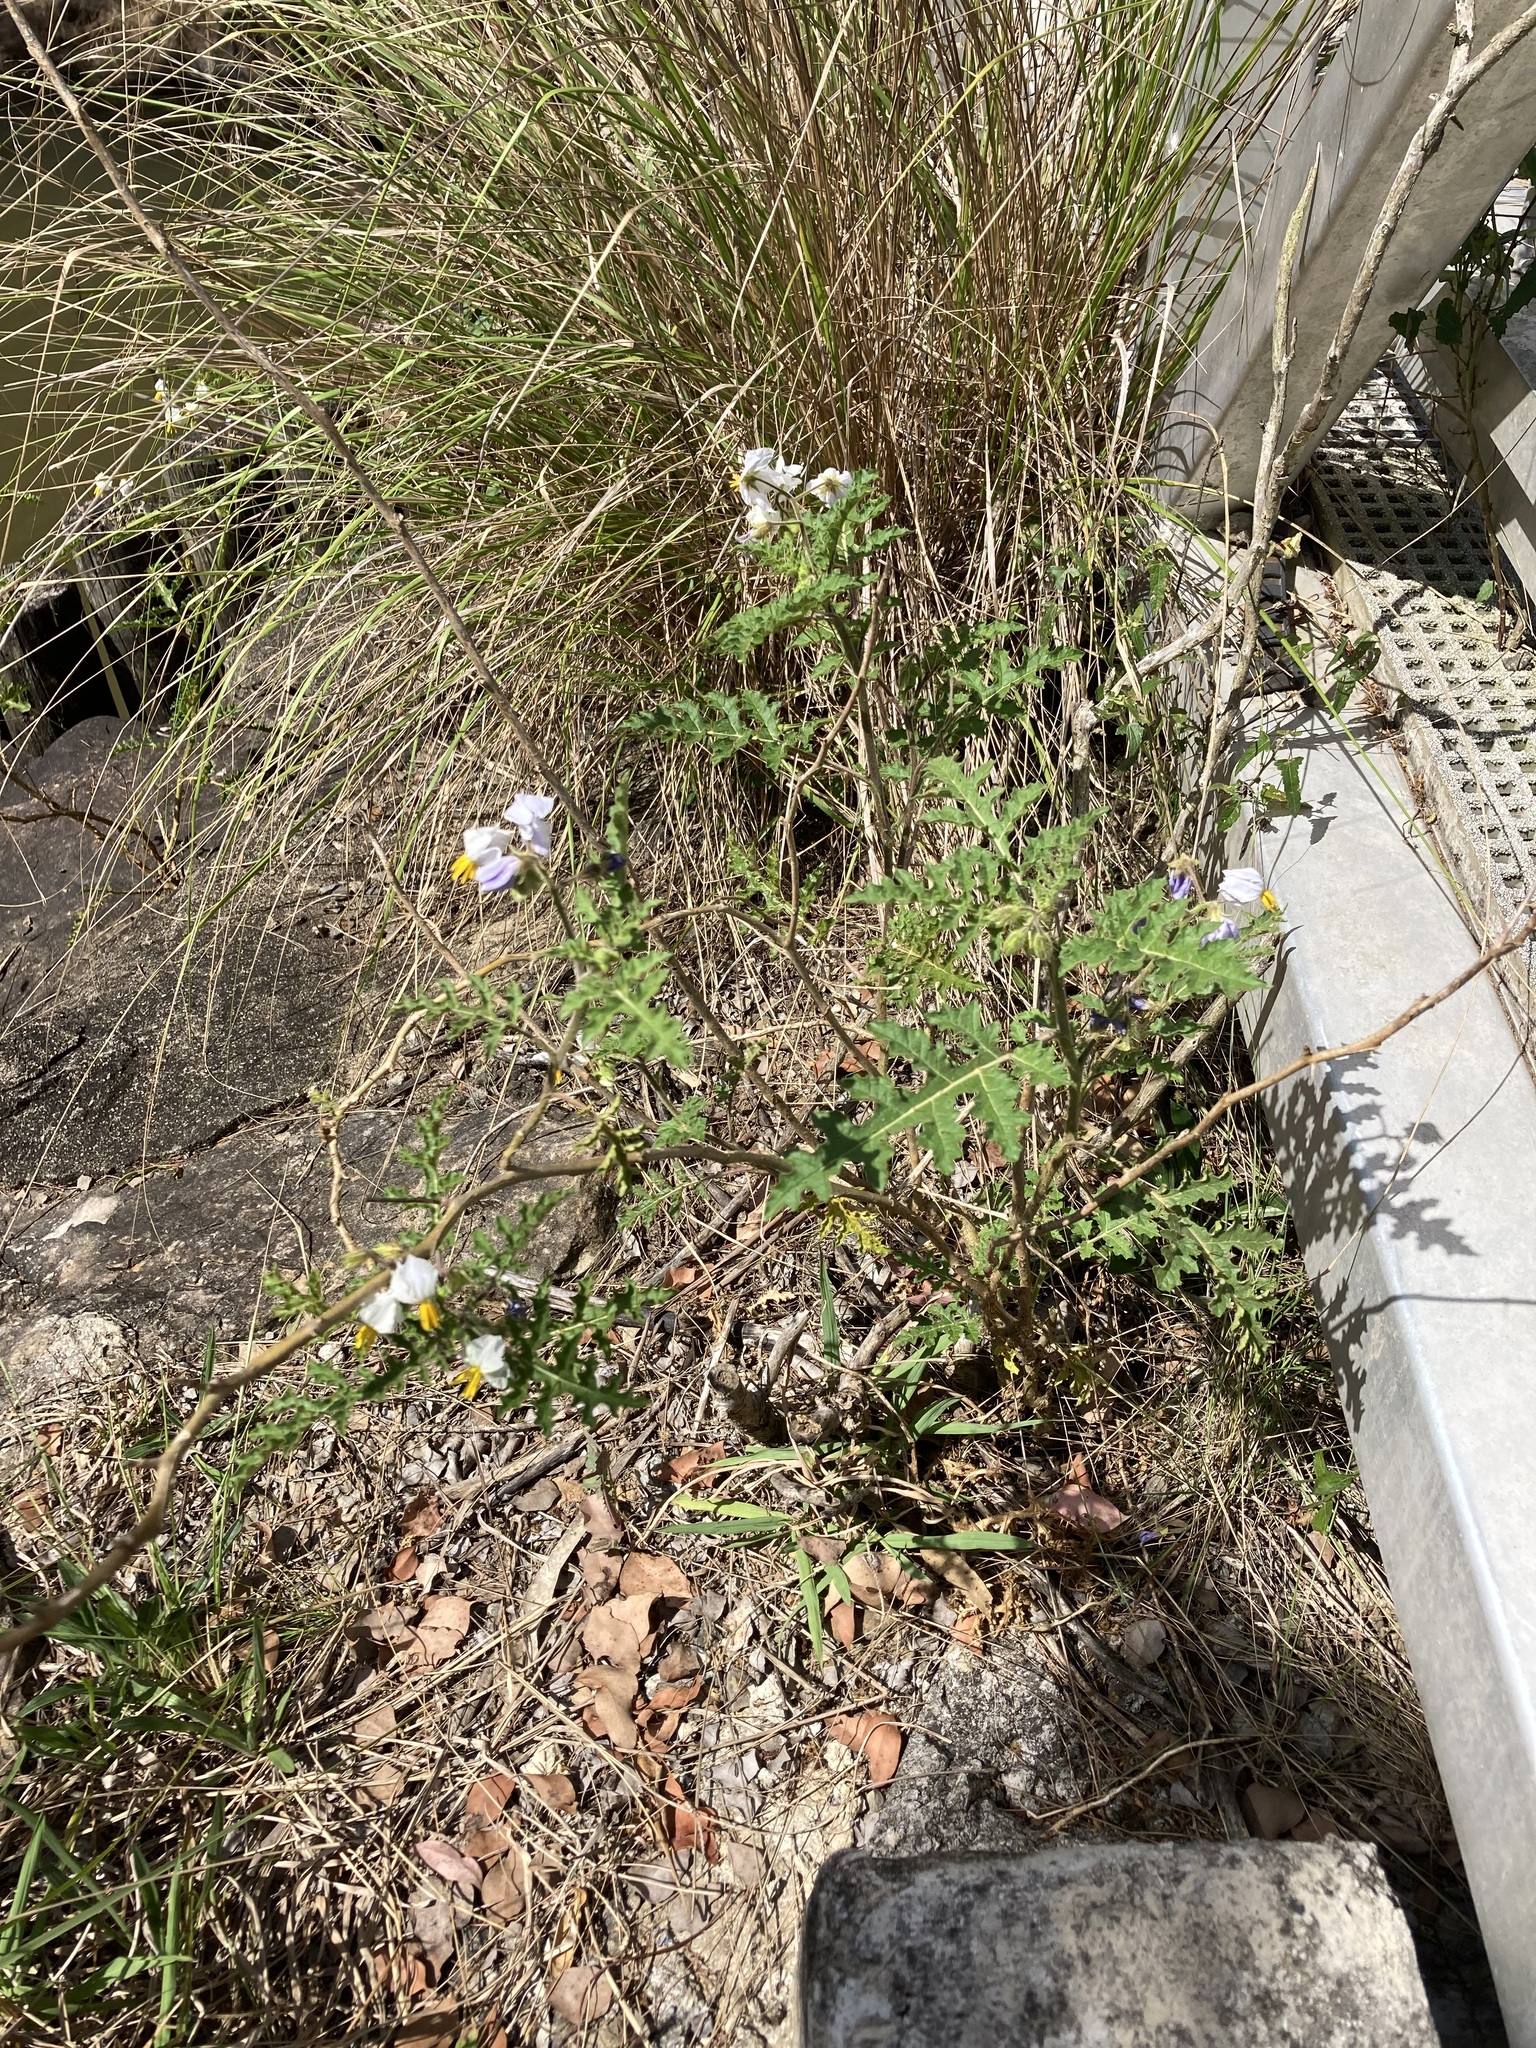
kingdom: Plantae
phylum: Tracheophyta
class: Magnoliopsida
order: Solanales
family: Solanaceae
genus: Solanum
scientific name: Solanum sisymbriifolium
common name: Red buffalo-bur
